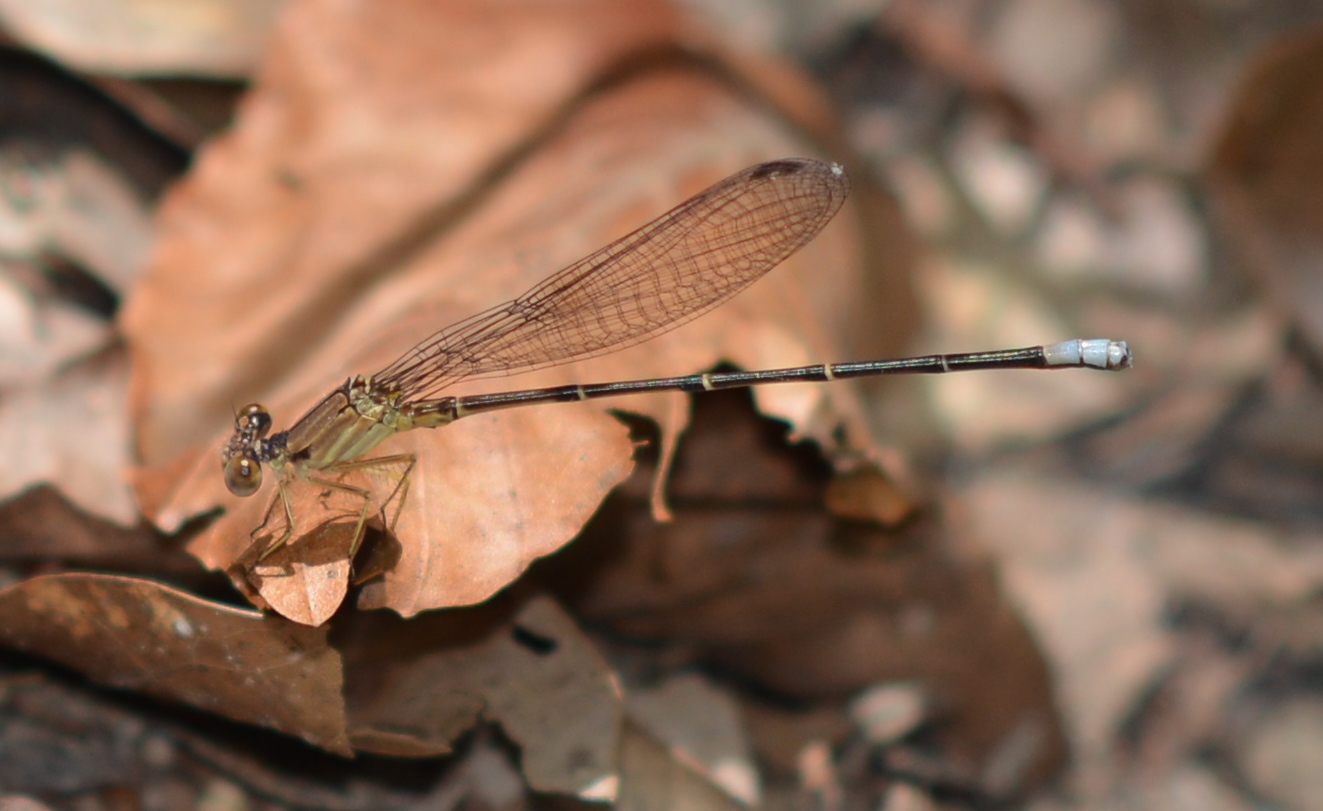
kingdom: Animalia
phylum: Arthropoda
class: Insecta
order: Odonata
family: Coenagrionidae
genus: Argia
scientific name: Argia apicalis
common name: Blue-fronted dancer
